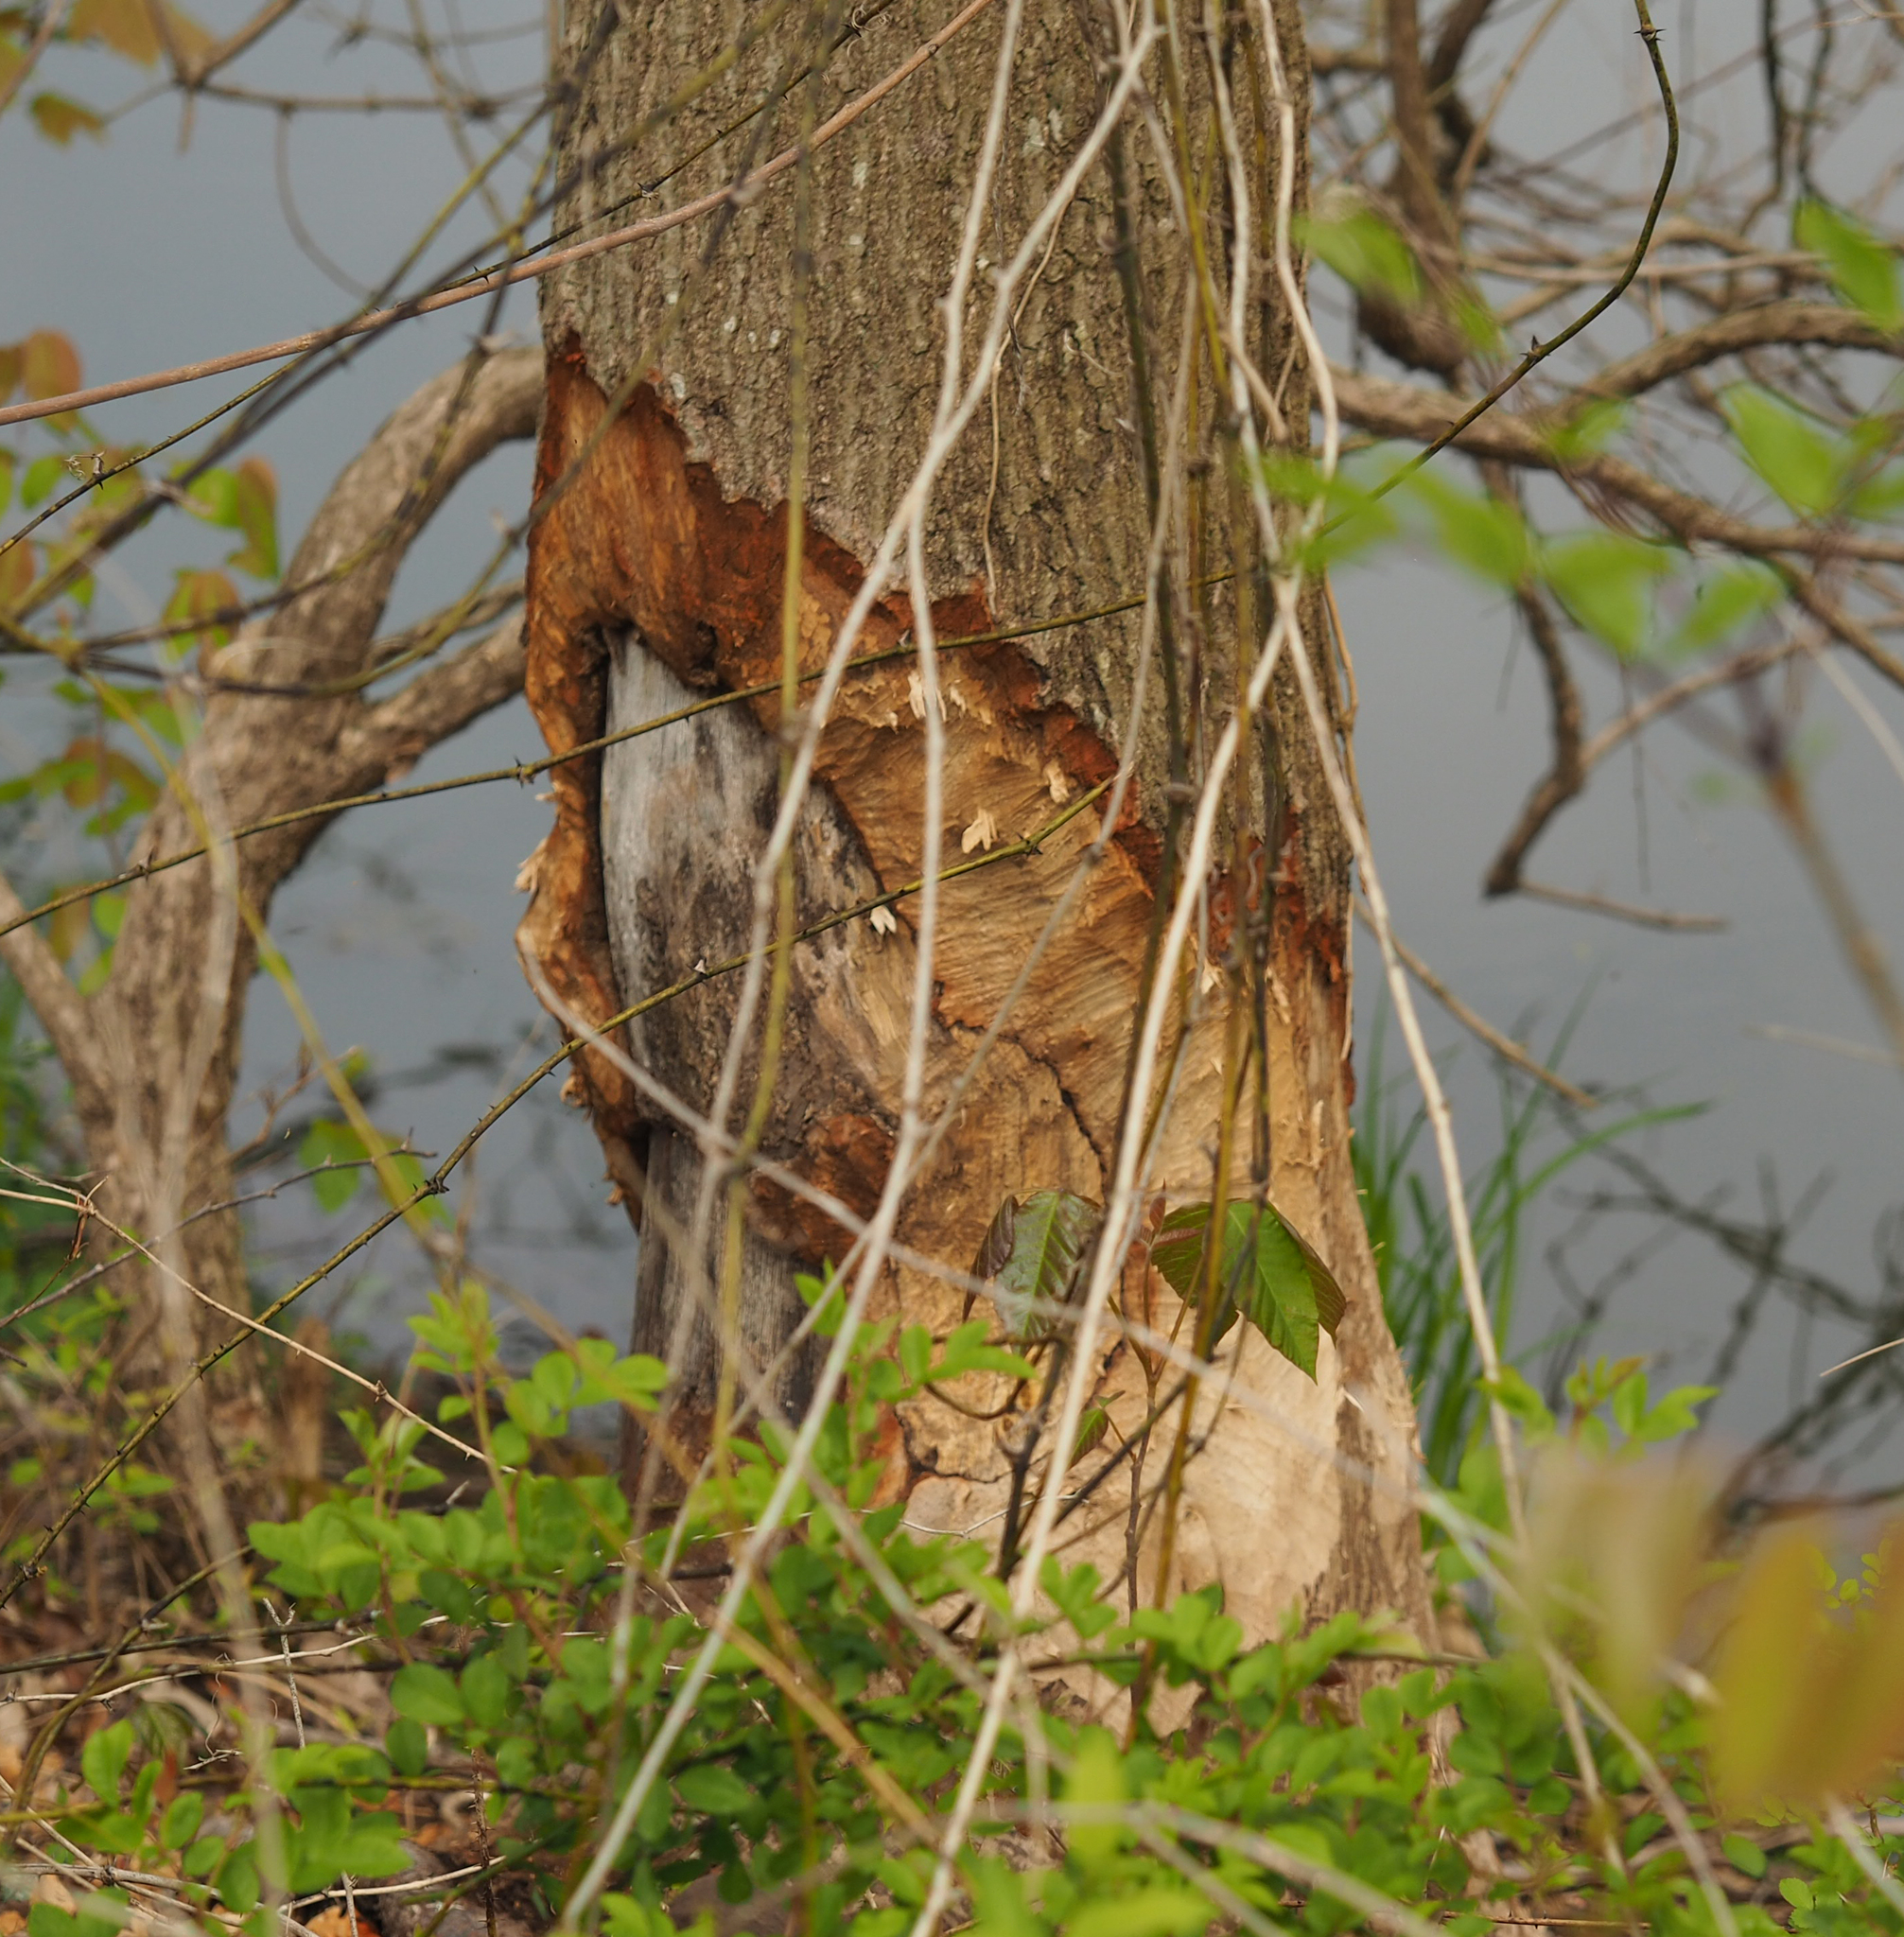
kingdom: Animalia
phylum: Chordata
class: Mammalia
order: Rodentia
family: Castoridae
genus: Castor
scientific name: Castor canadensis
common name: American beaver
